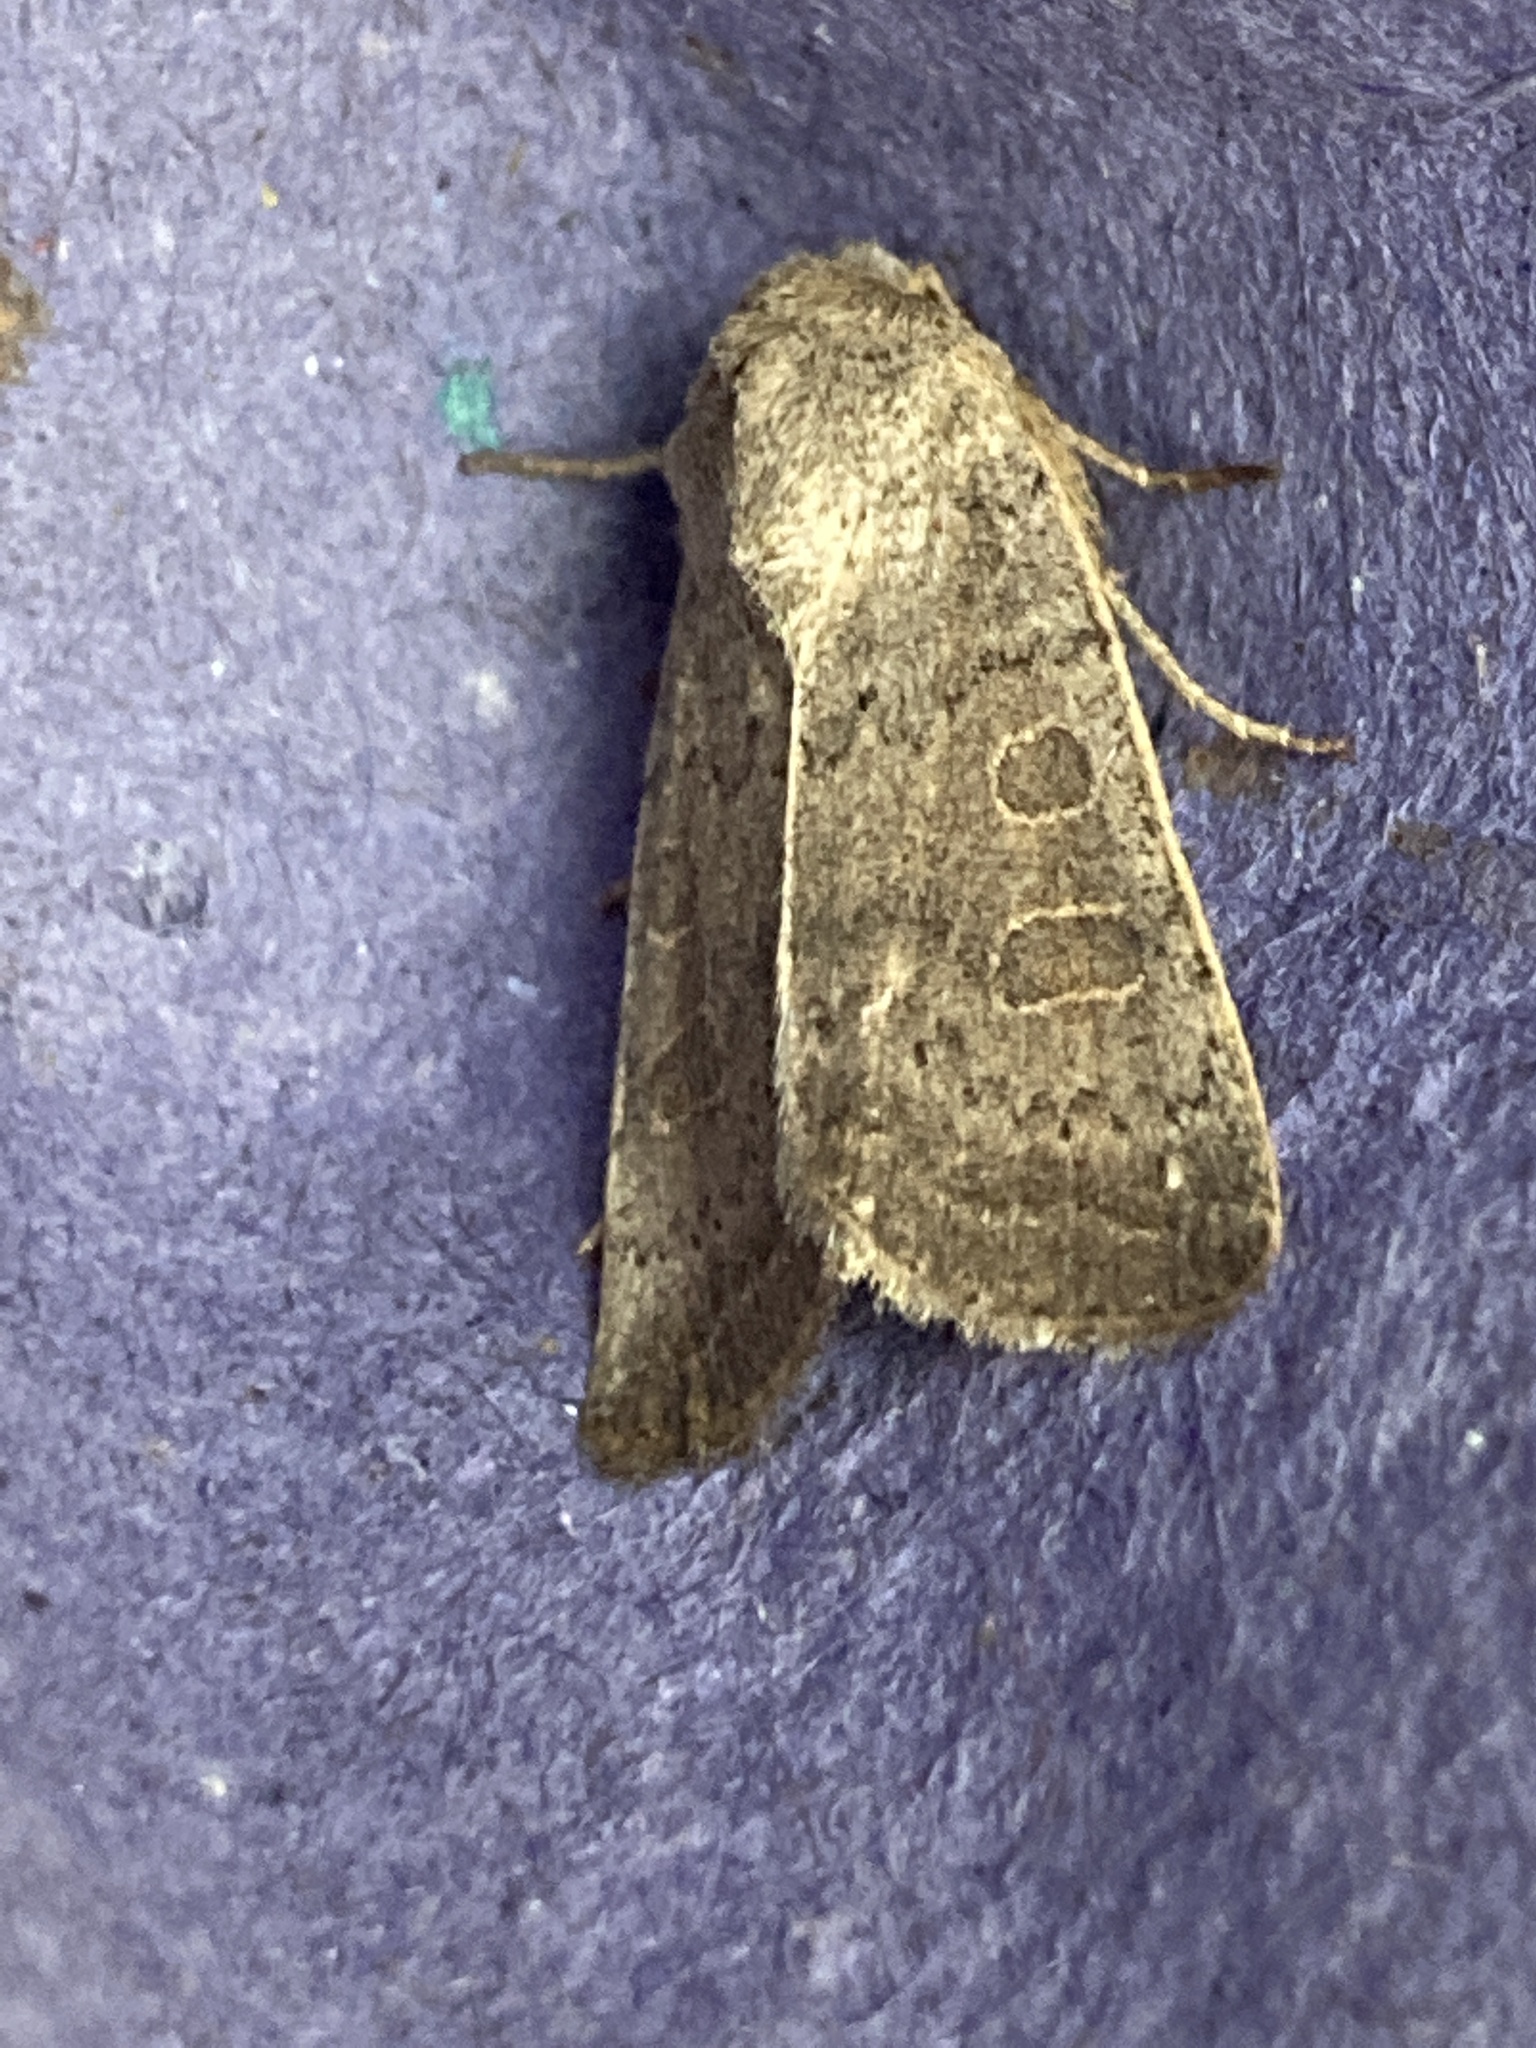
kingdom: Animalia
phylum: Arthropoda
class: Insecta
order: Lepidoptera
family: Noctuidae
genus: Hoplodrina
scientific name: Hoplodrina ambigua
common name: Vine's rustic
